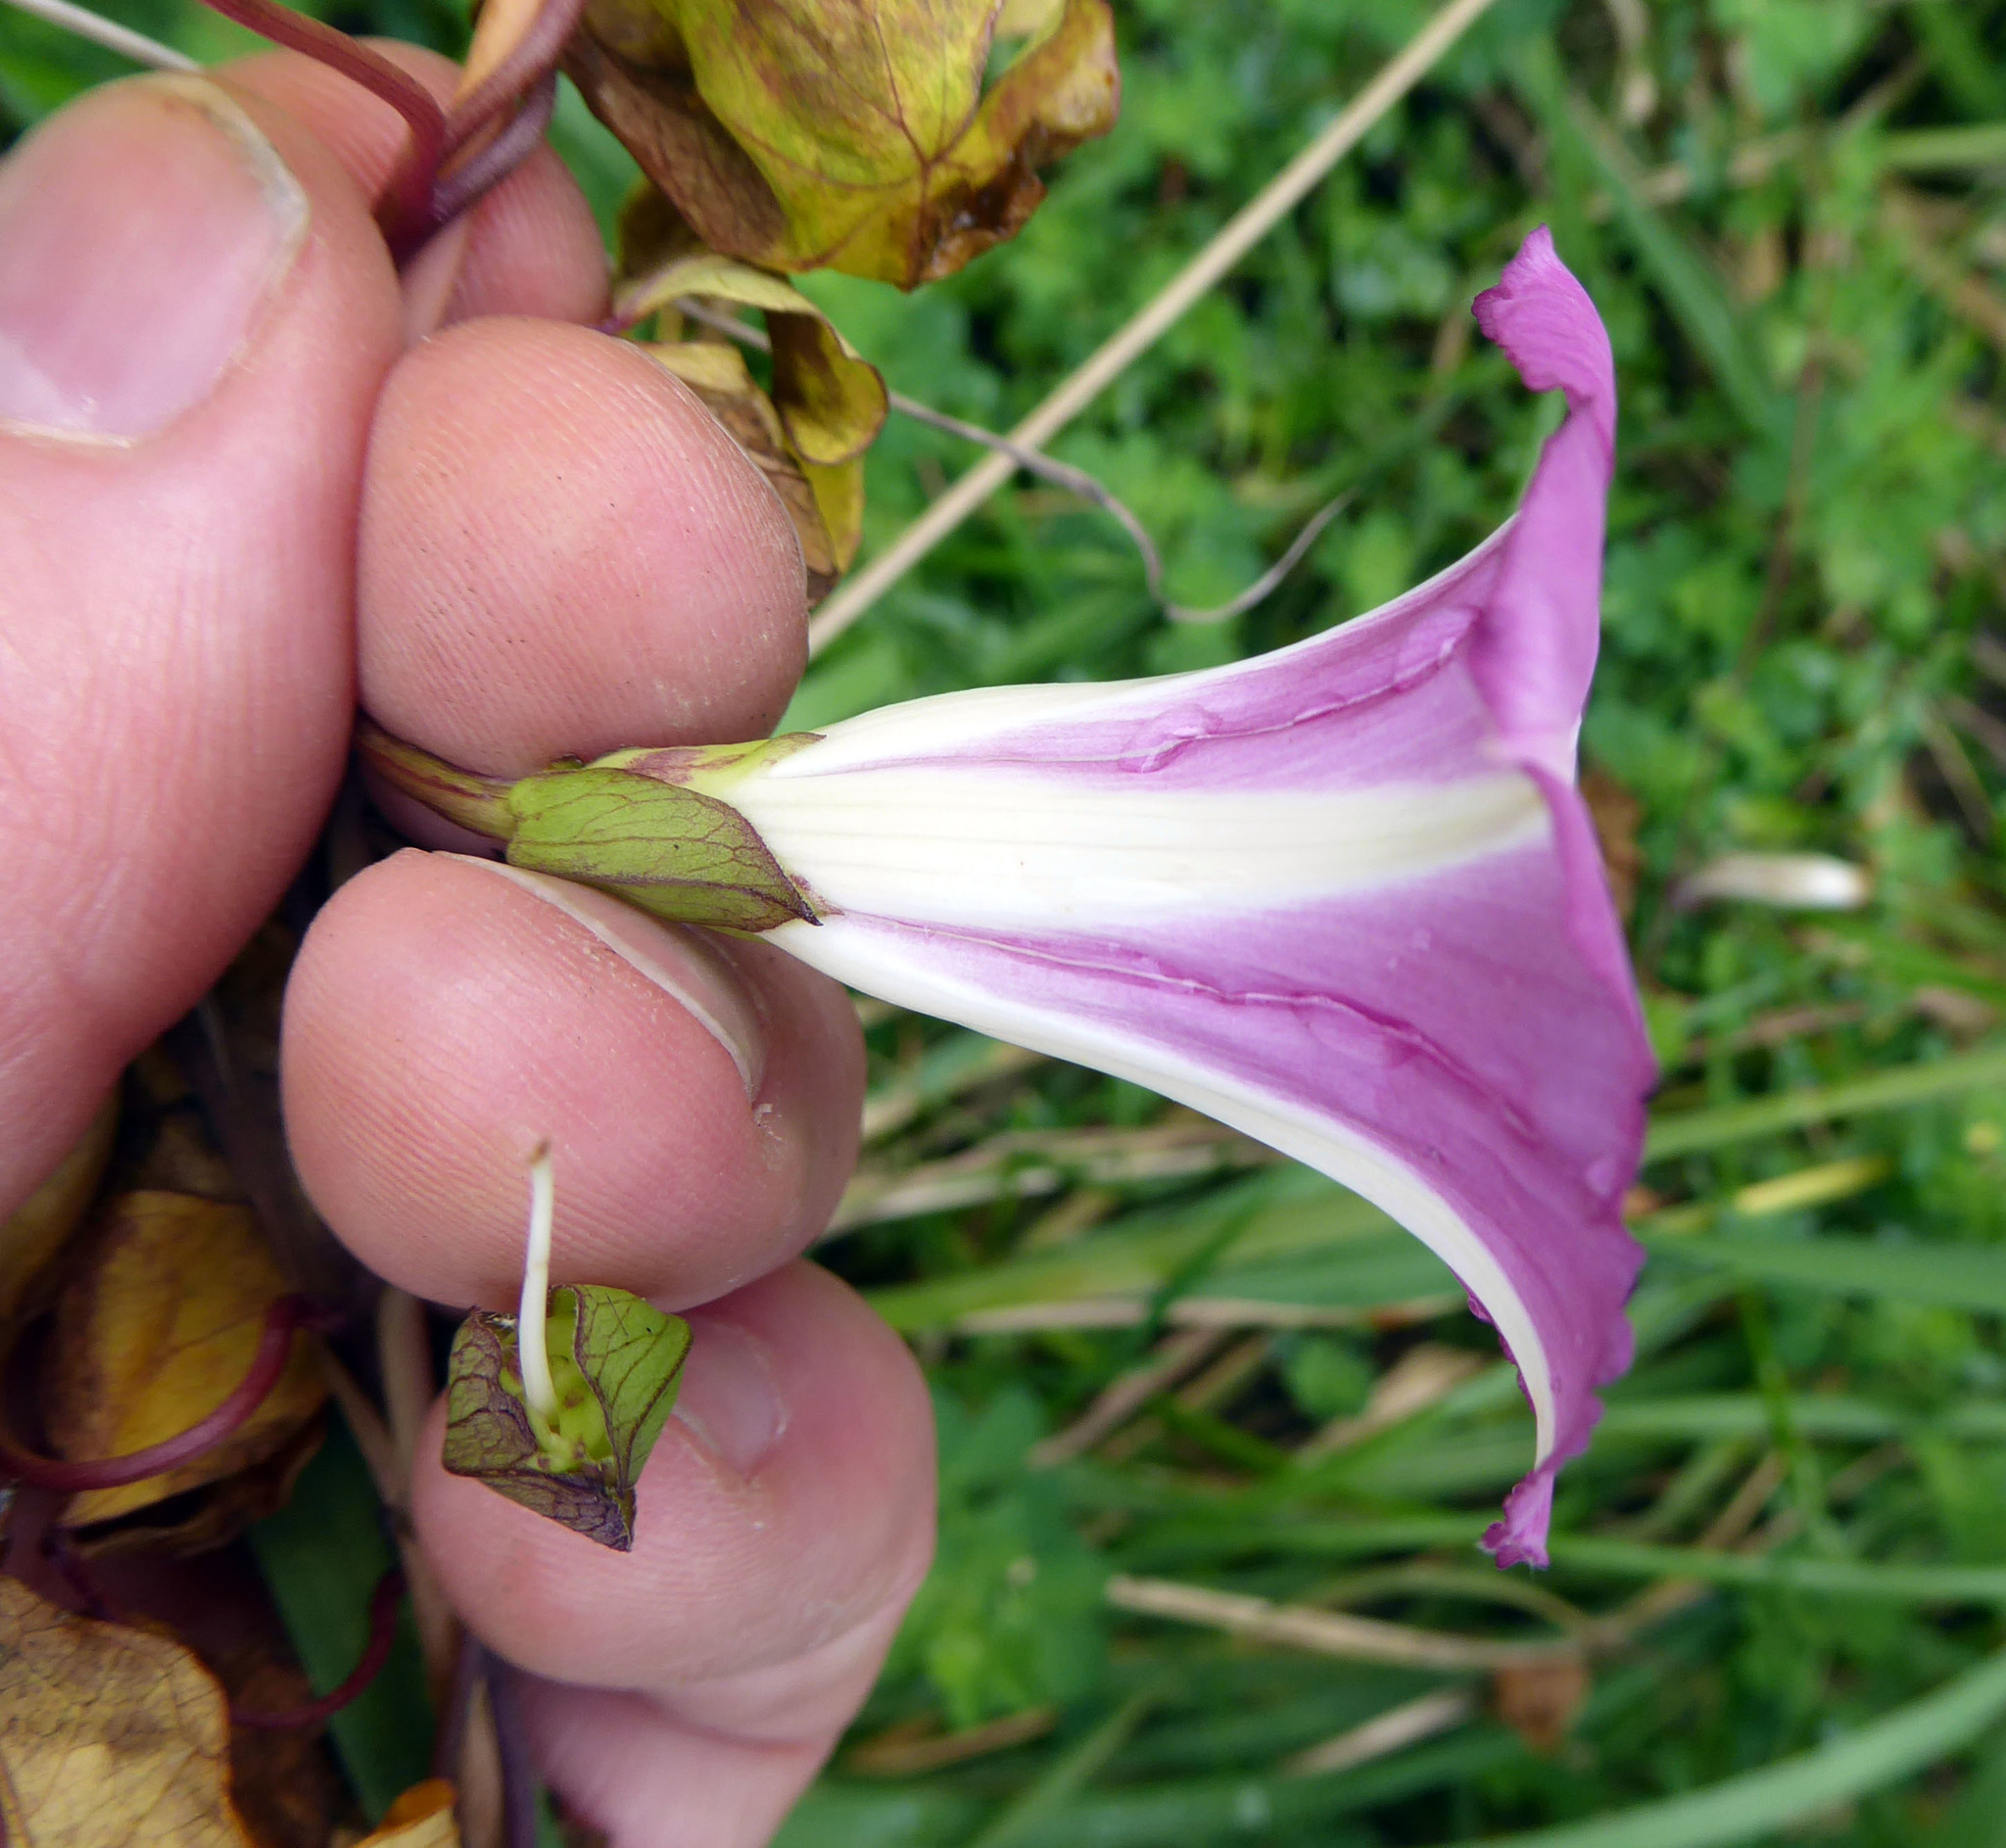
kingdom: Plantae
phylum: Tracheophyta
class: Magnoliopsida
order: Solanales
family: Convolvulaceae
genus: Calystegia
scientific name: Calystegia sepium
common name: Hedge bindweed
